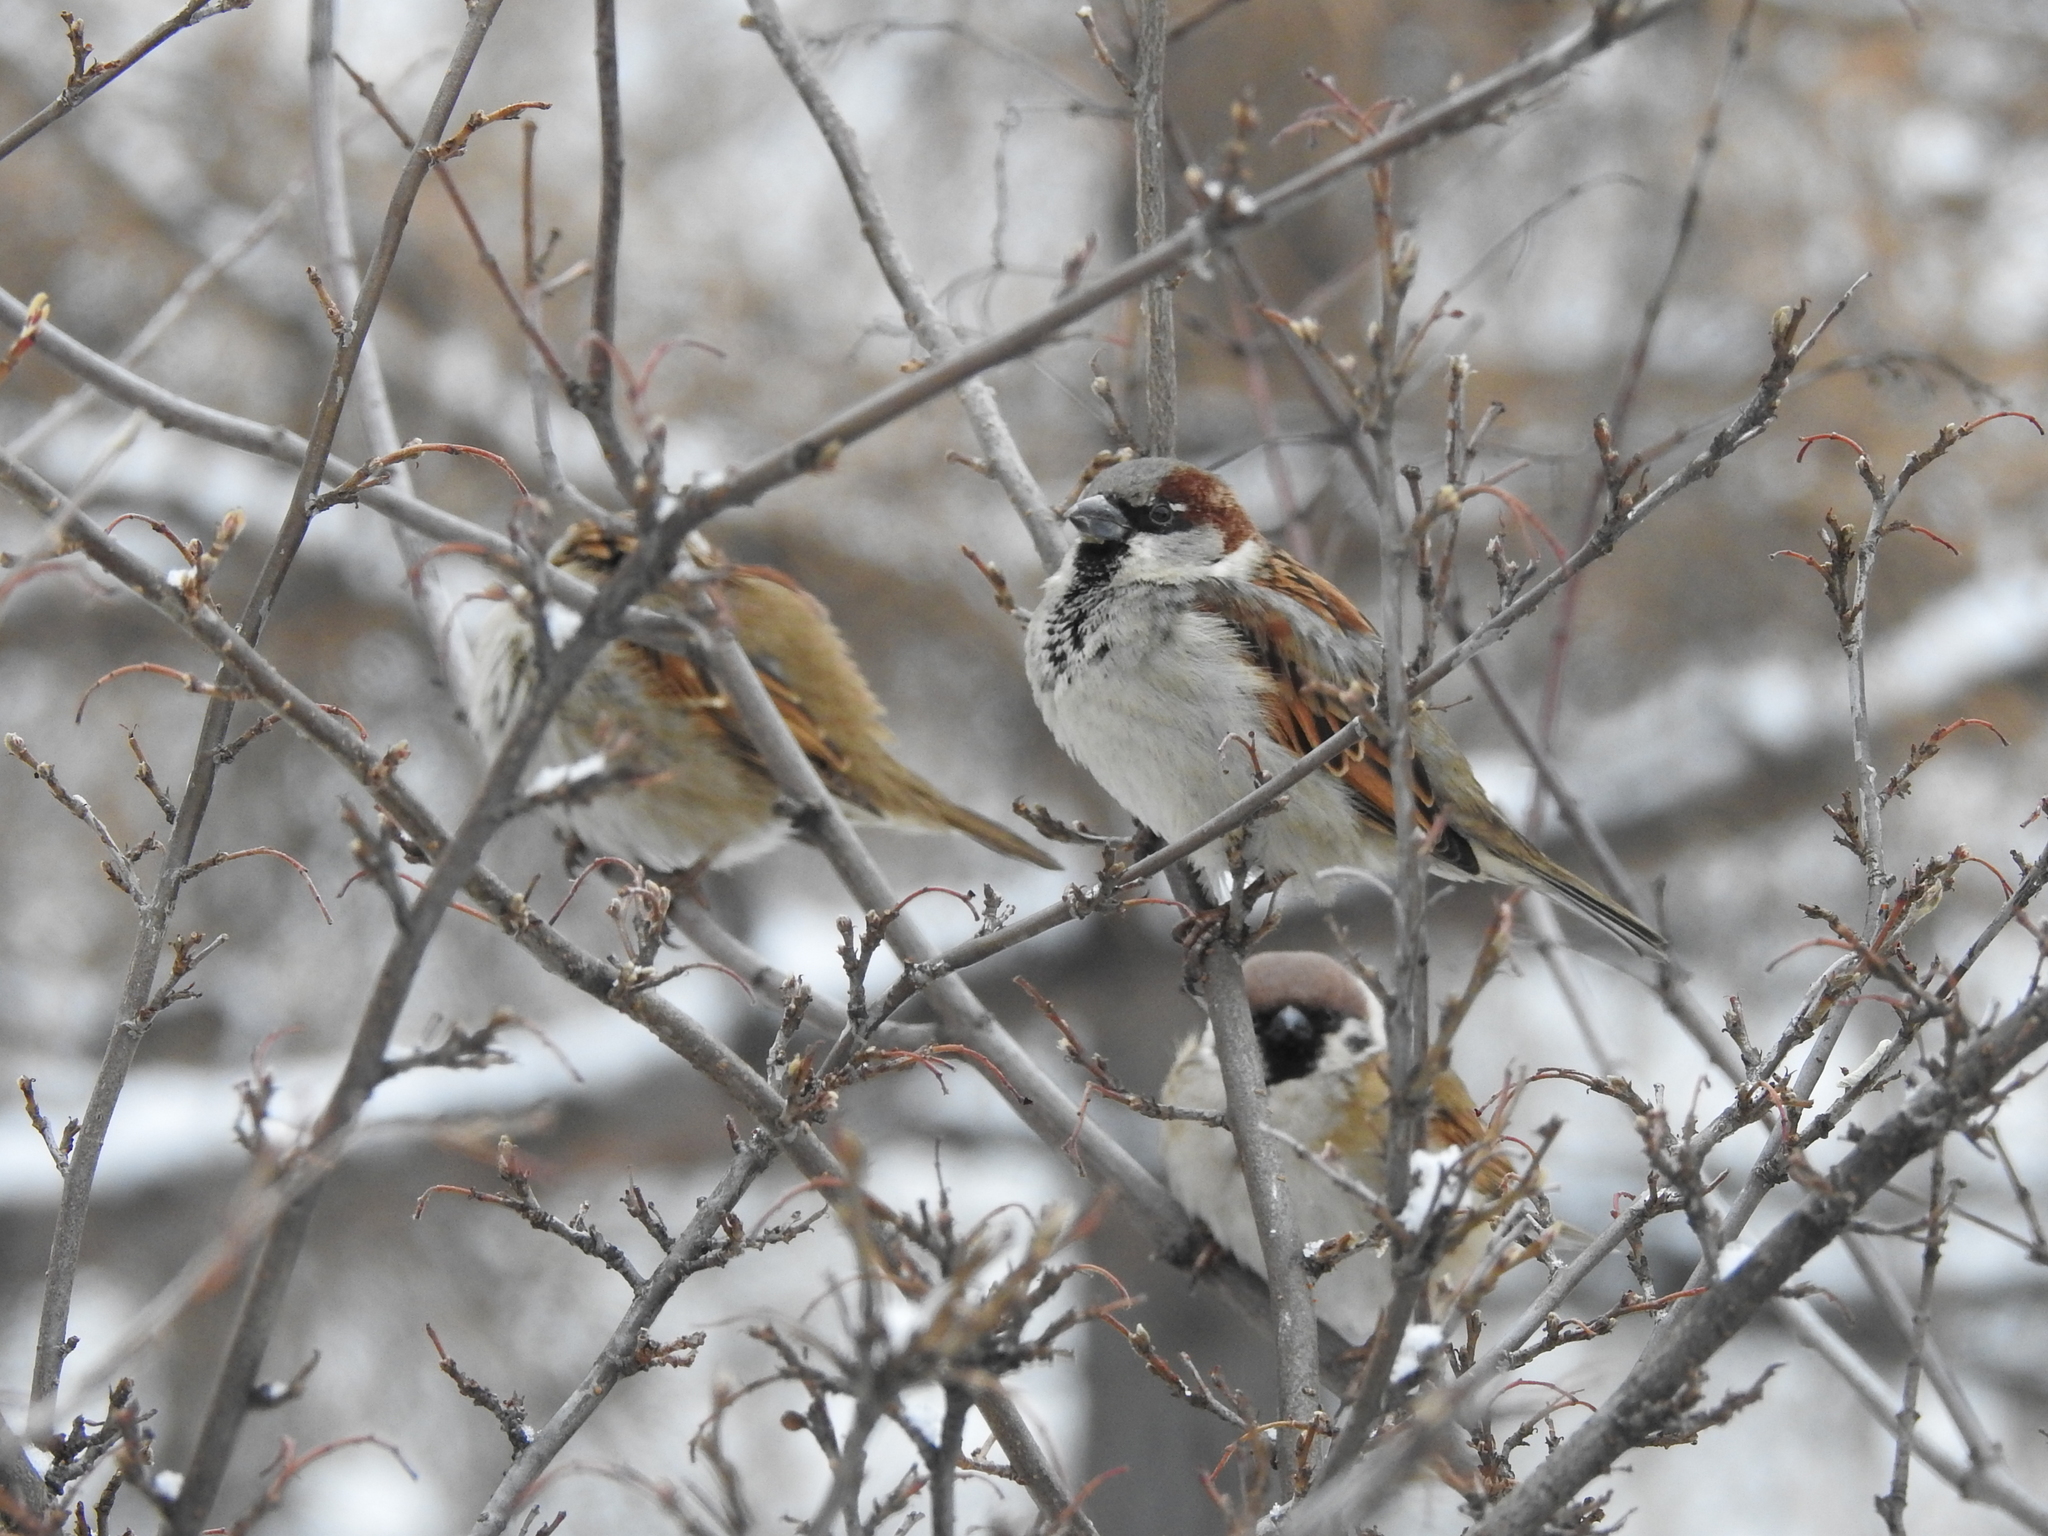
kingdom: Animalia
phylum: Chordata
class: Aves
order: Passeriformes
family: Passeridae
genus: Passer
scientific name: Passer domesticus
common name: House sparrow
